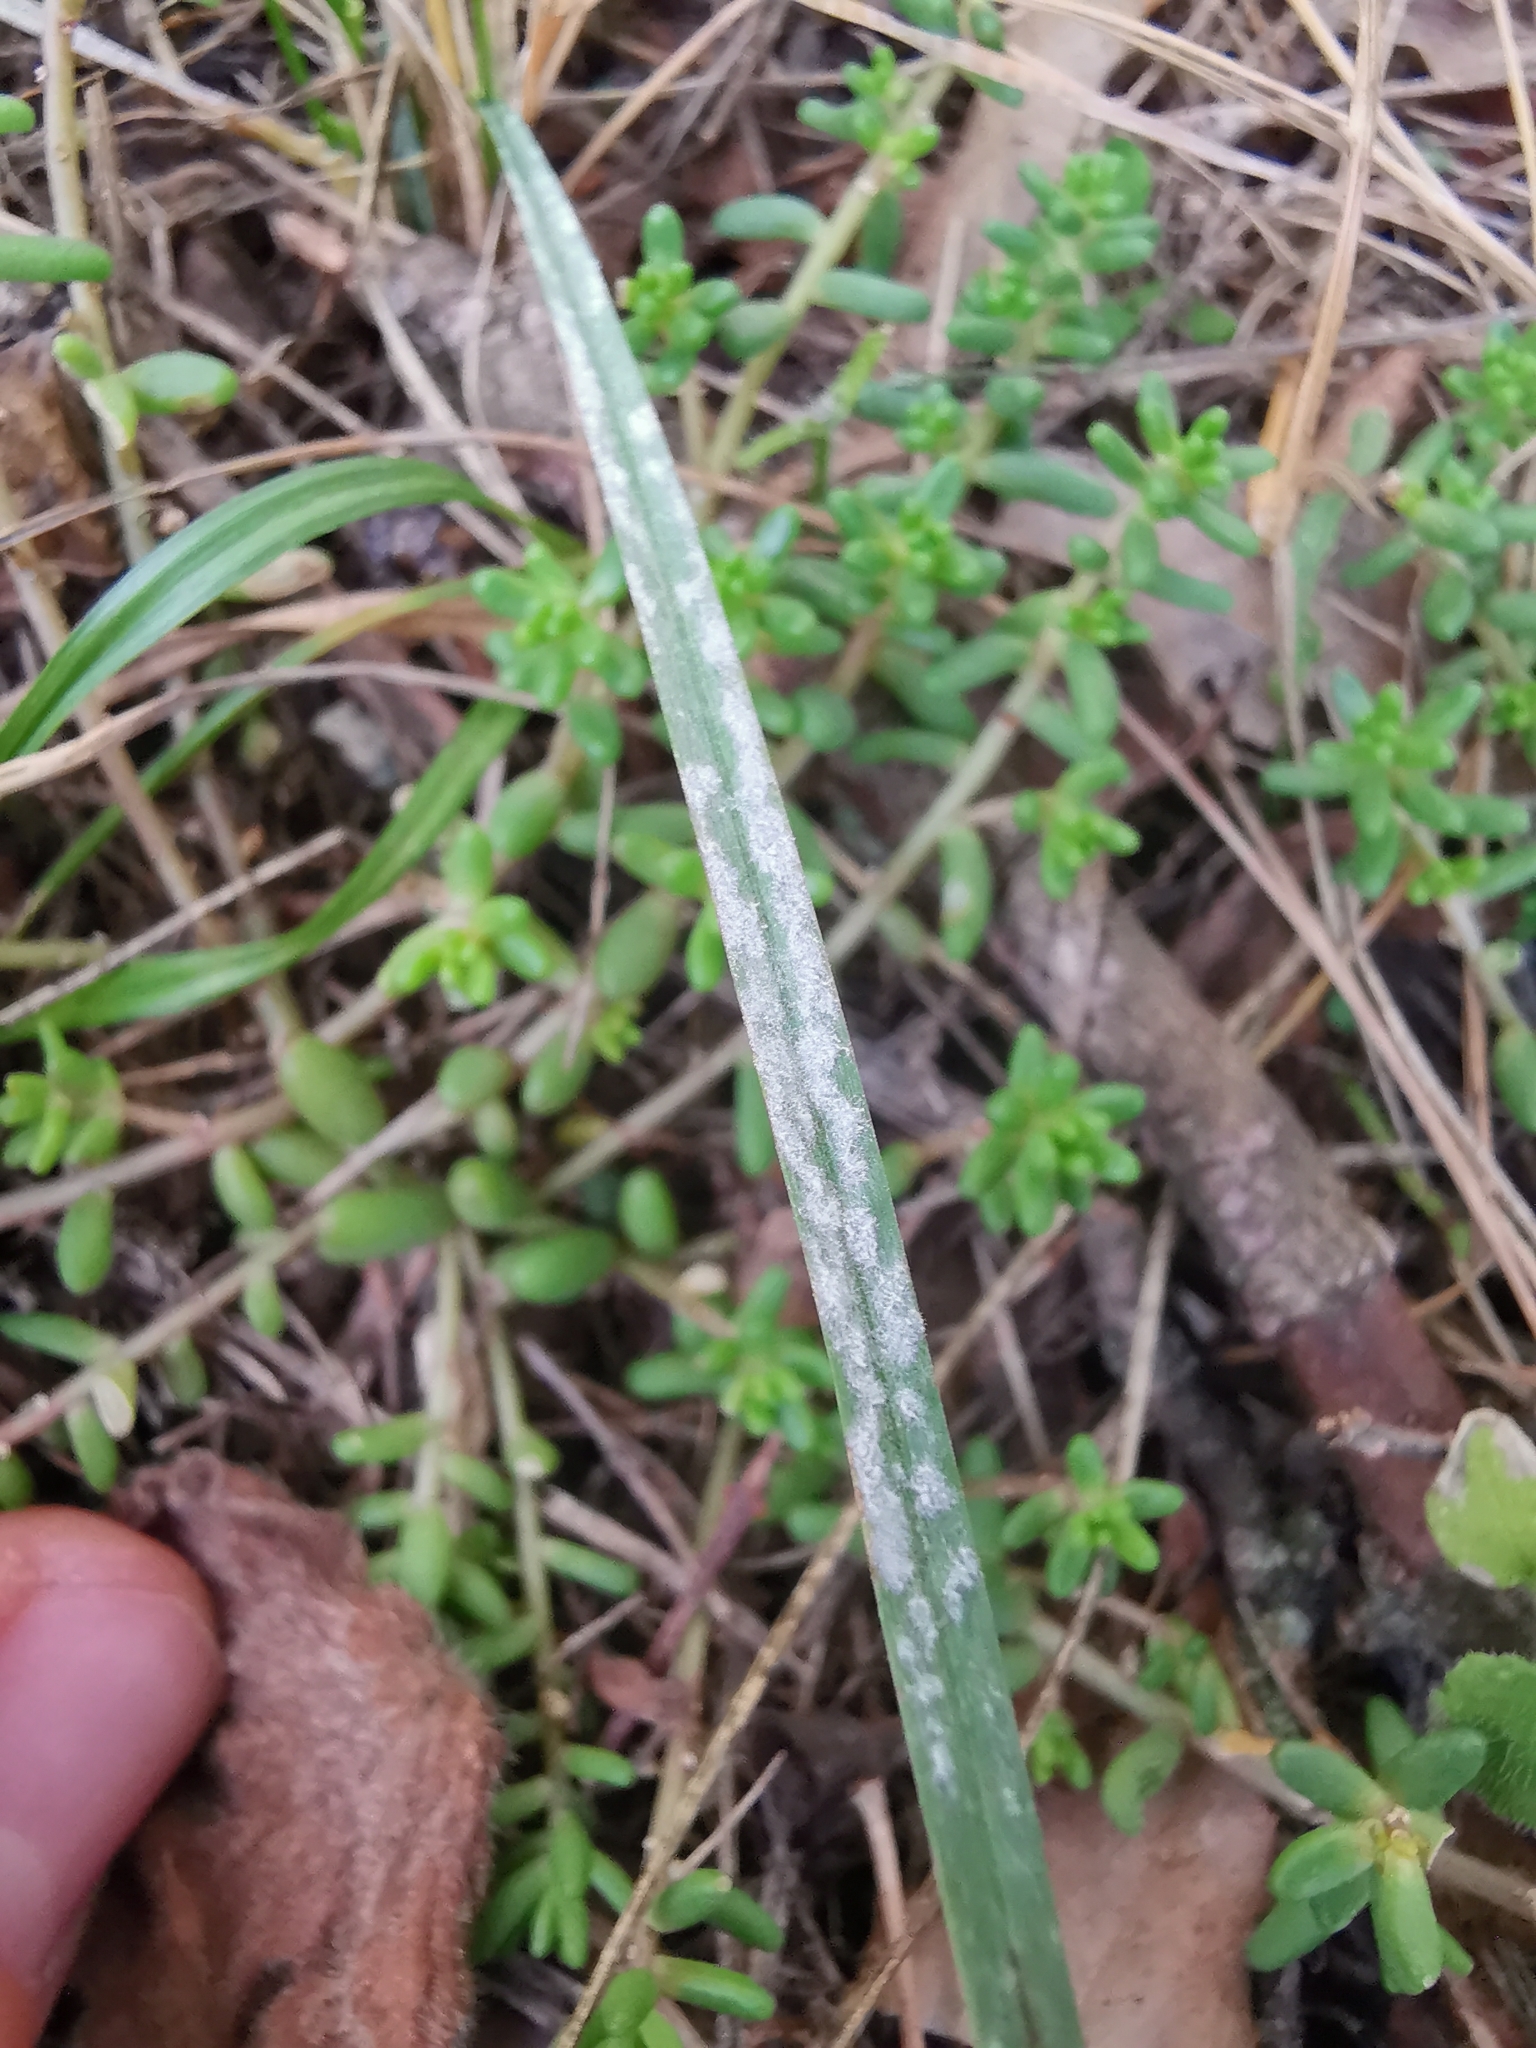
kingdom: Plantae
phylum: Tracheophyta
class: Magnoliopsida
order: Saxifragales
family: Crassulaceae
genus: Sedum
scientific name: Sedum album
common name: White stonecrop
